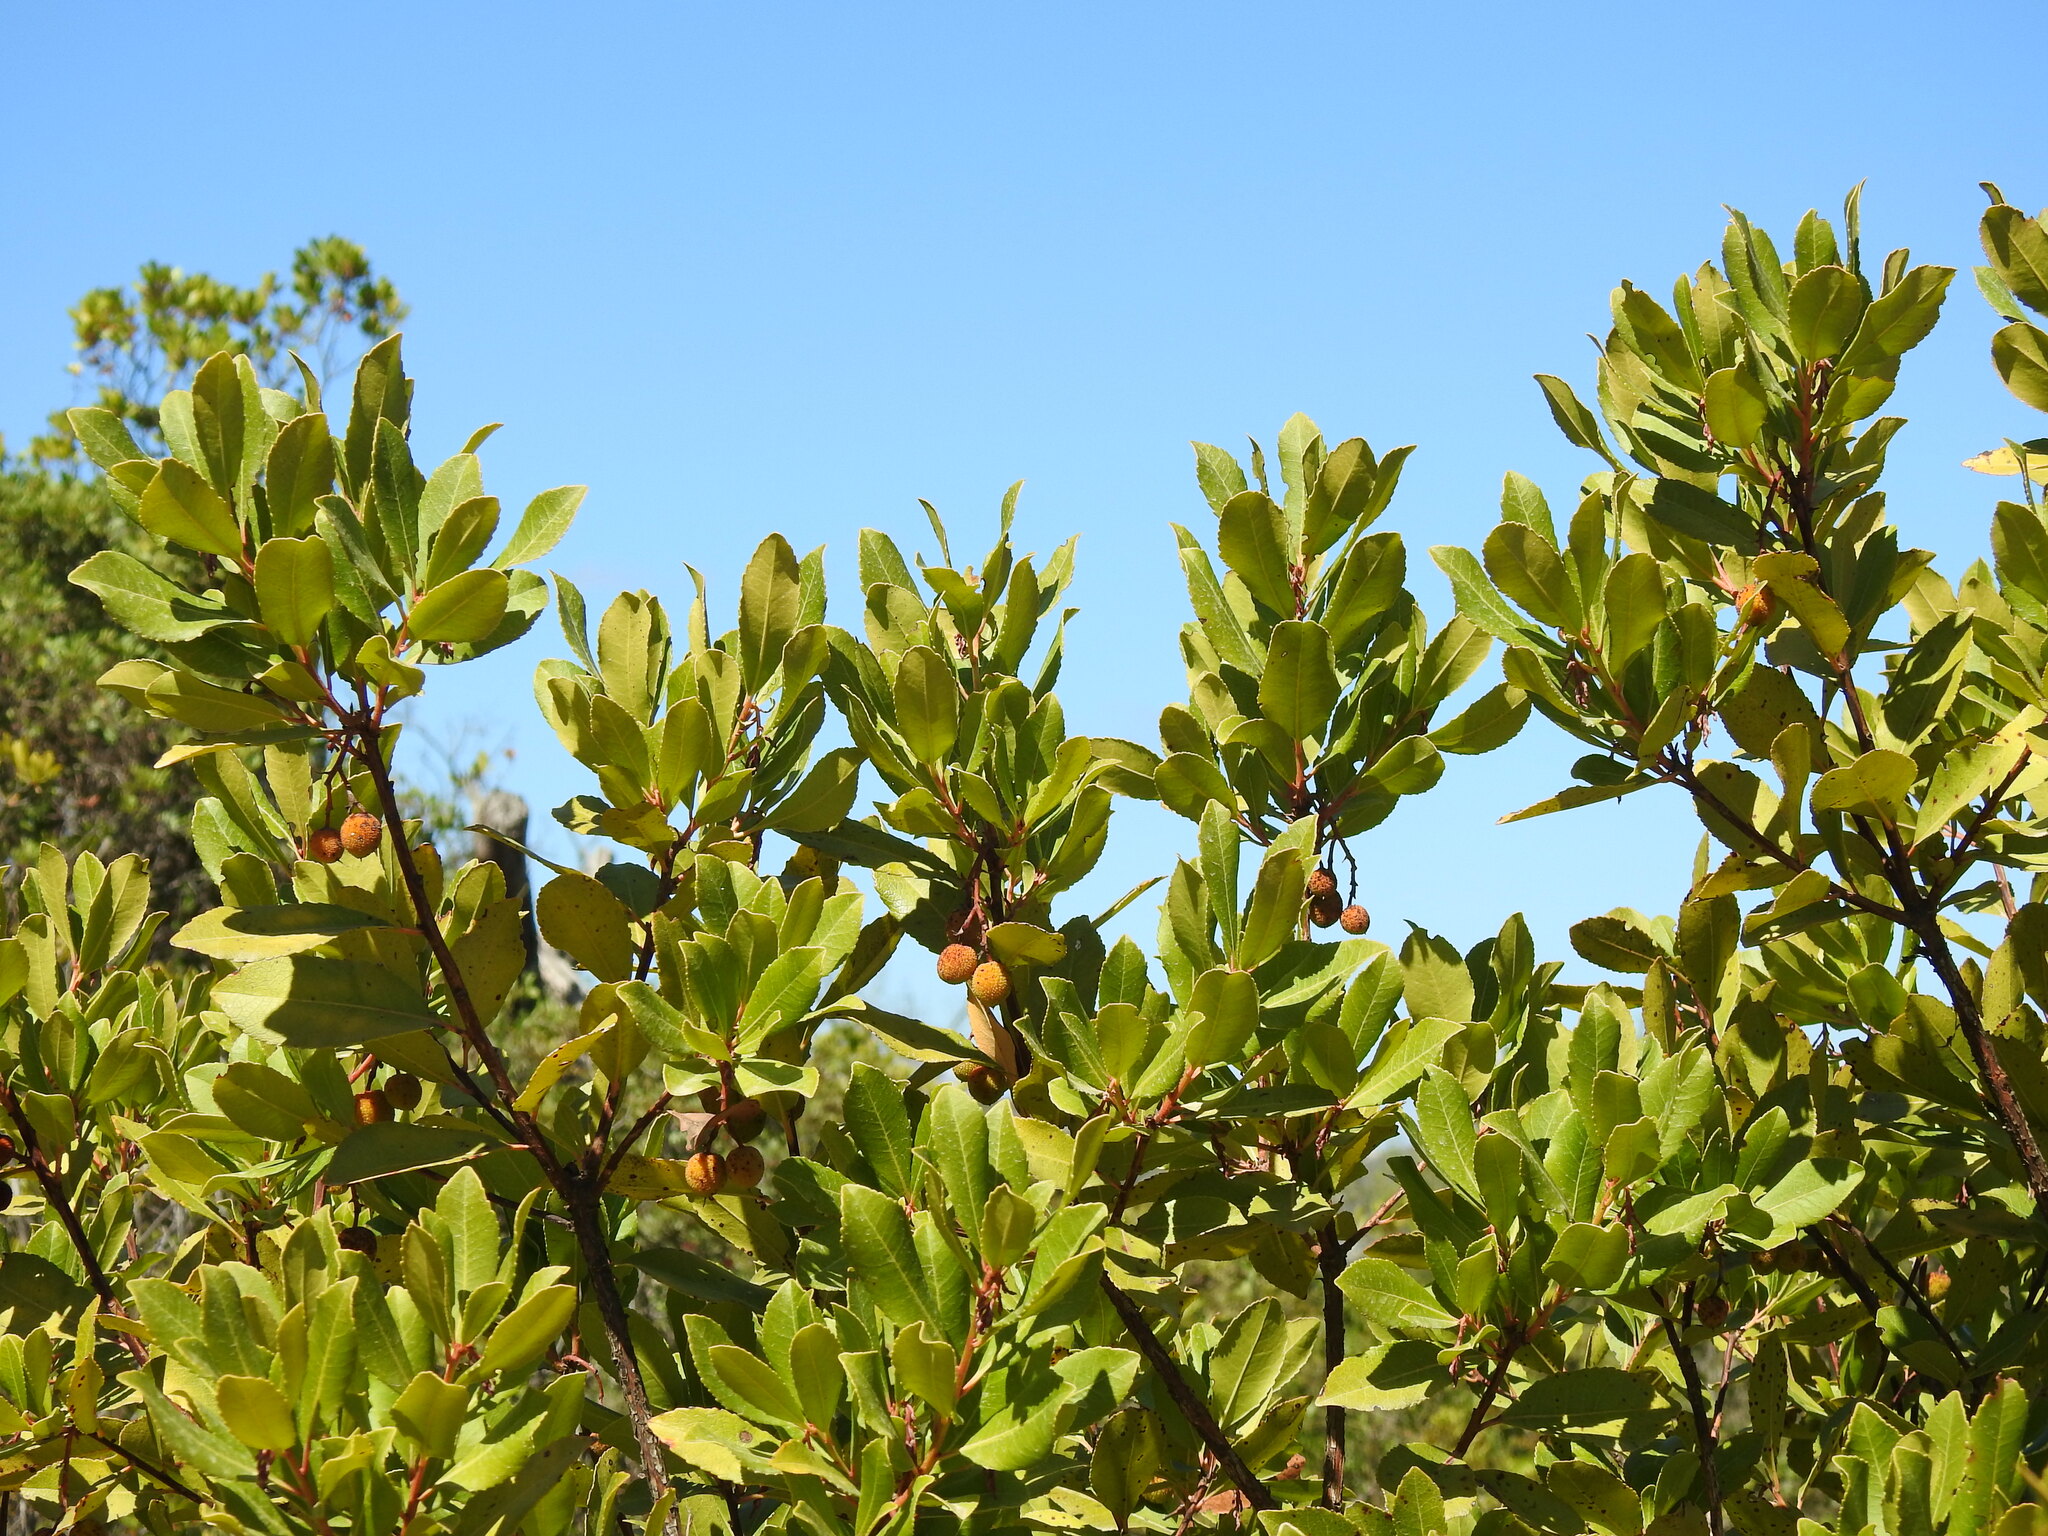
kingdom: Plantae
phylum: Tracheophyta
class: Magnoliopsida
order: Ericales
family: Ericaceae
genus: Arbutus
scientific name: Arbutus unedo
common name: Strawberry-tree
